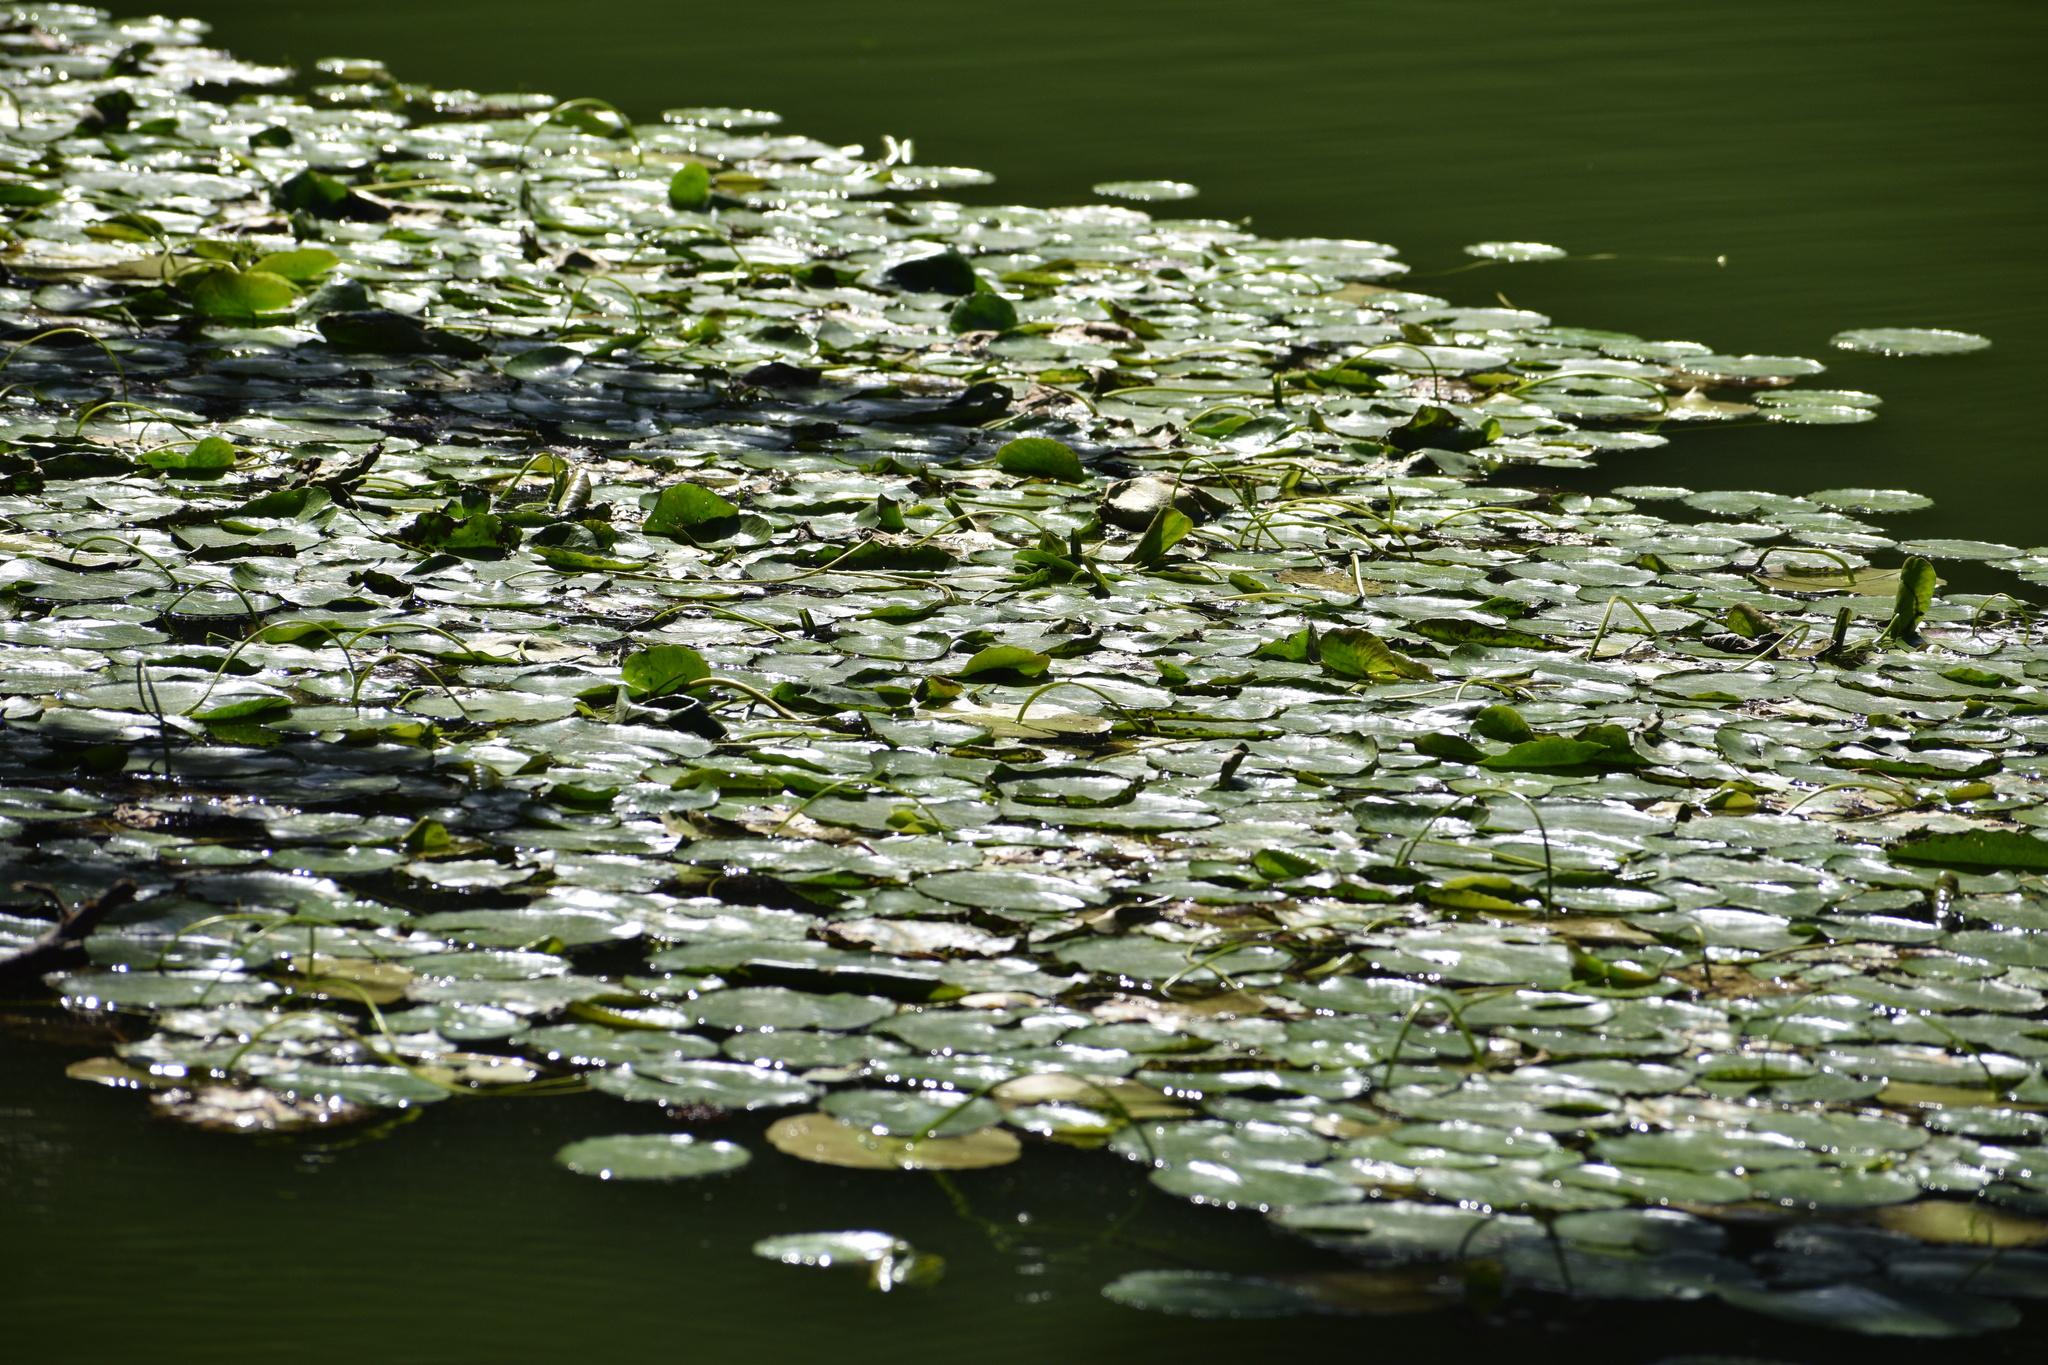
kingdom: Plantae
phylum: Tracheophyta
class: Magnoliopsida
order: Asterales
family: Menyanthaceae
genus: Nymphoides
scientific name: Nymphoides peltata
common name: Fringed water-lily
